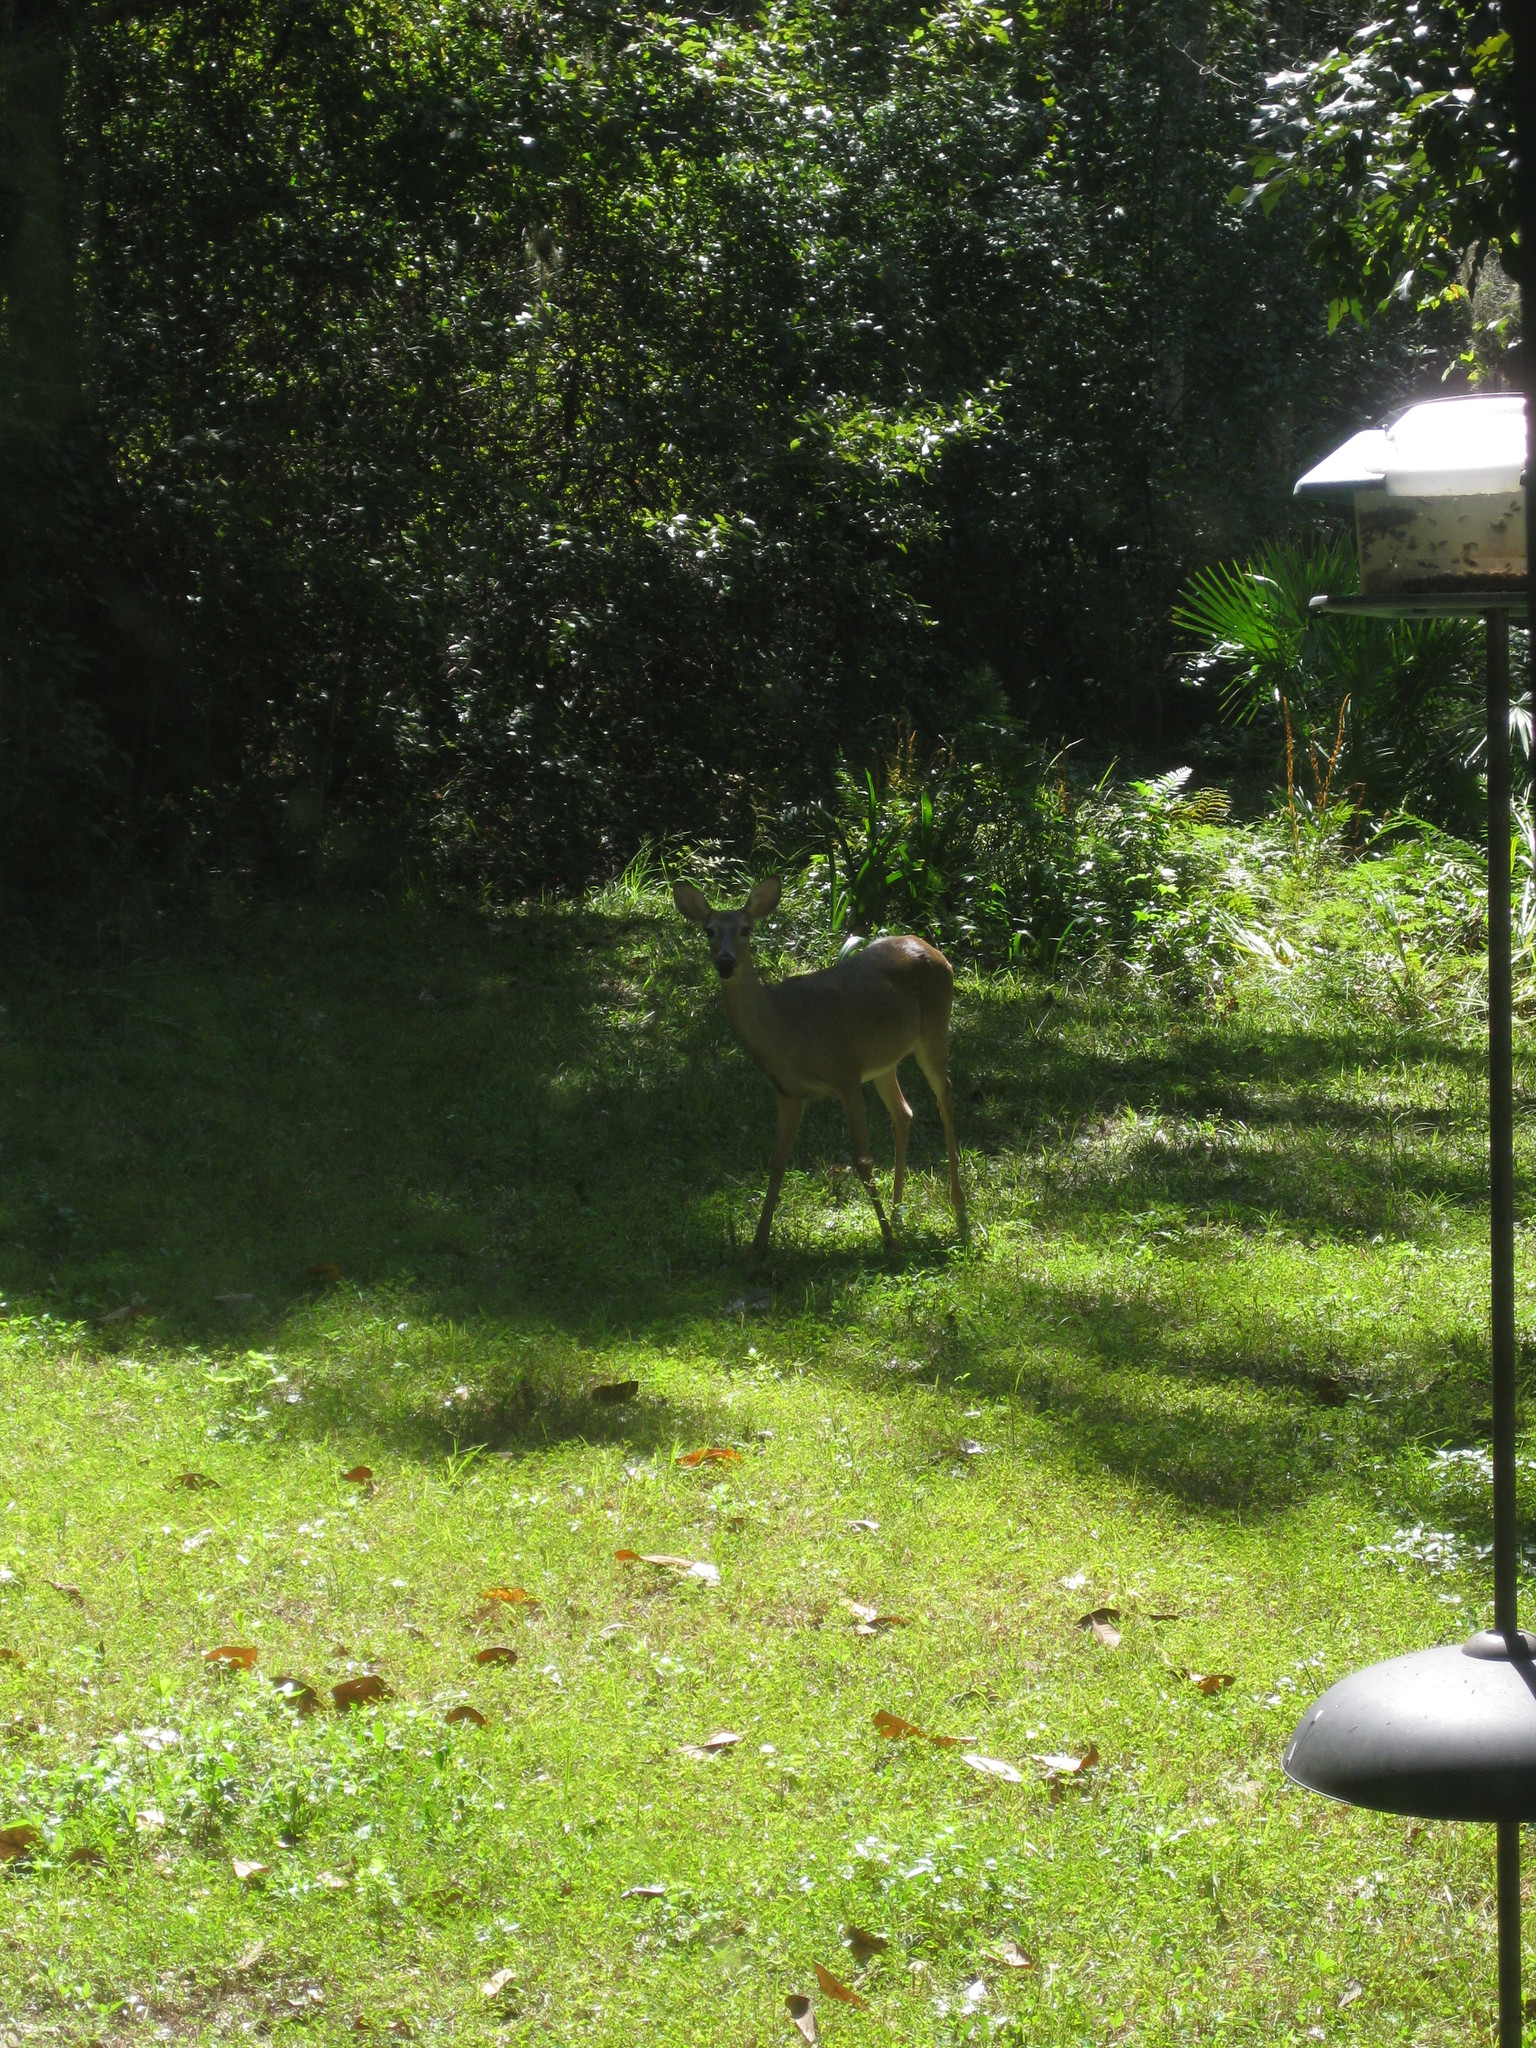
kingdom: Animalia
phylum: Chordata
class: Mammalia
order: Artiodactyla
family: Cervidae
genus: Odocoileus
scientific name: Odocoileus virginianus
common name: White-tailed deer
